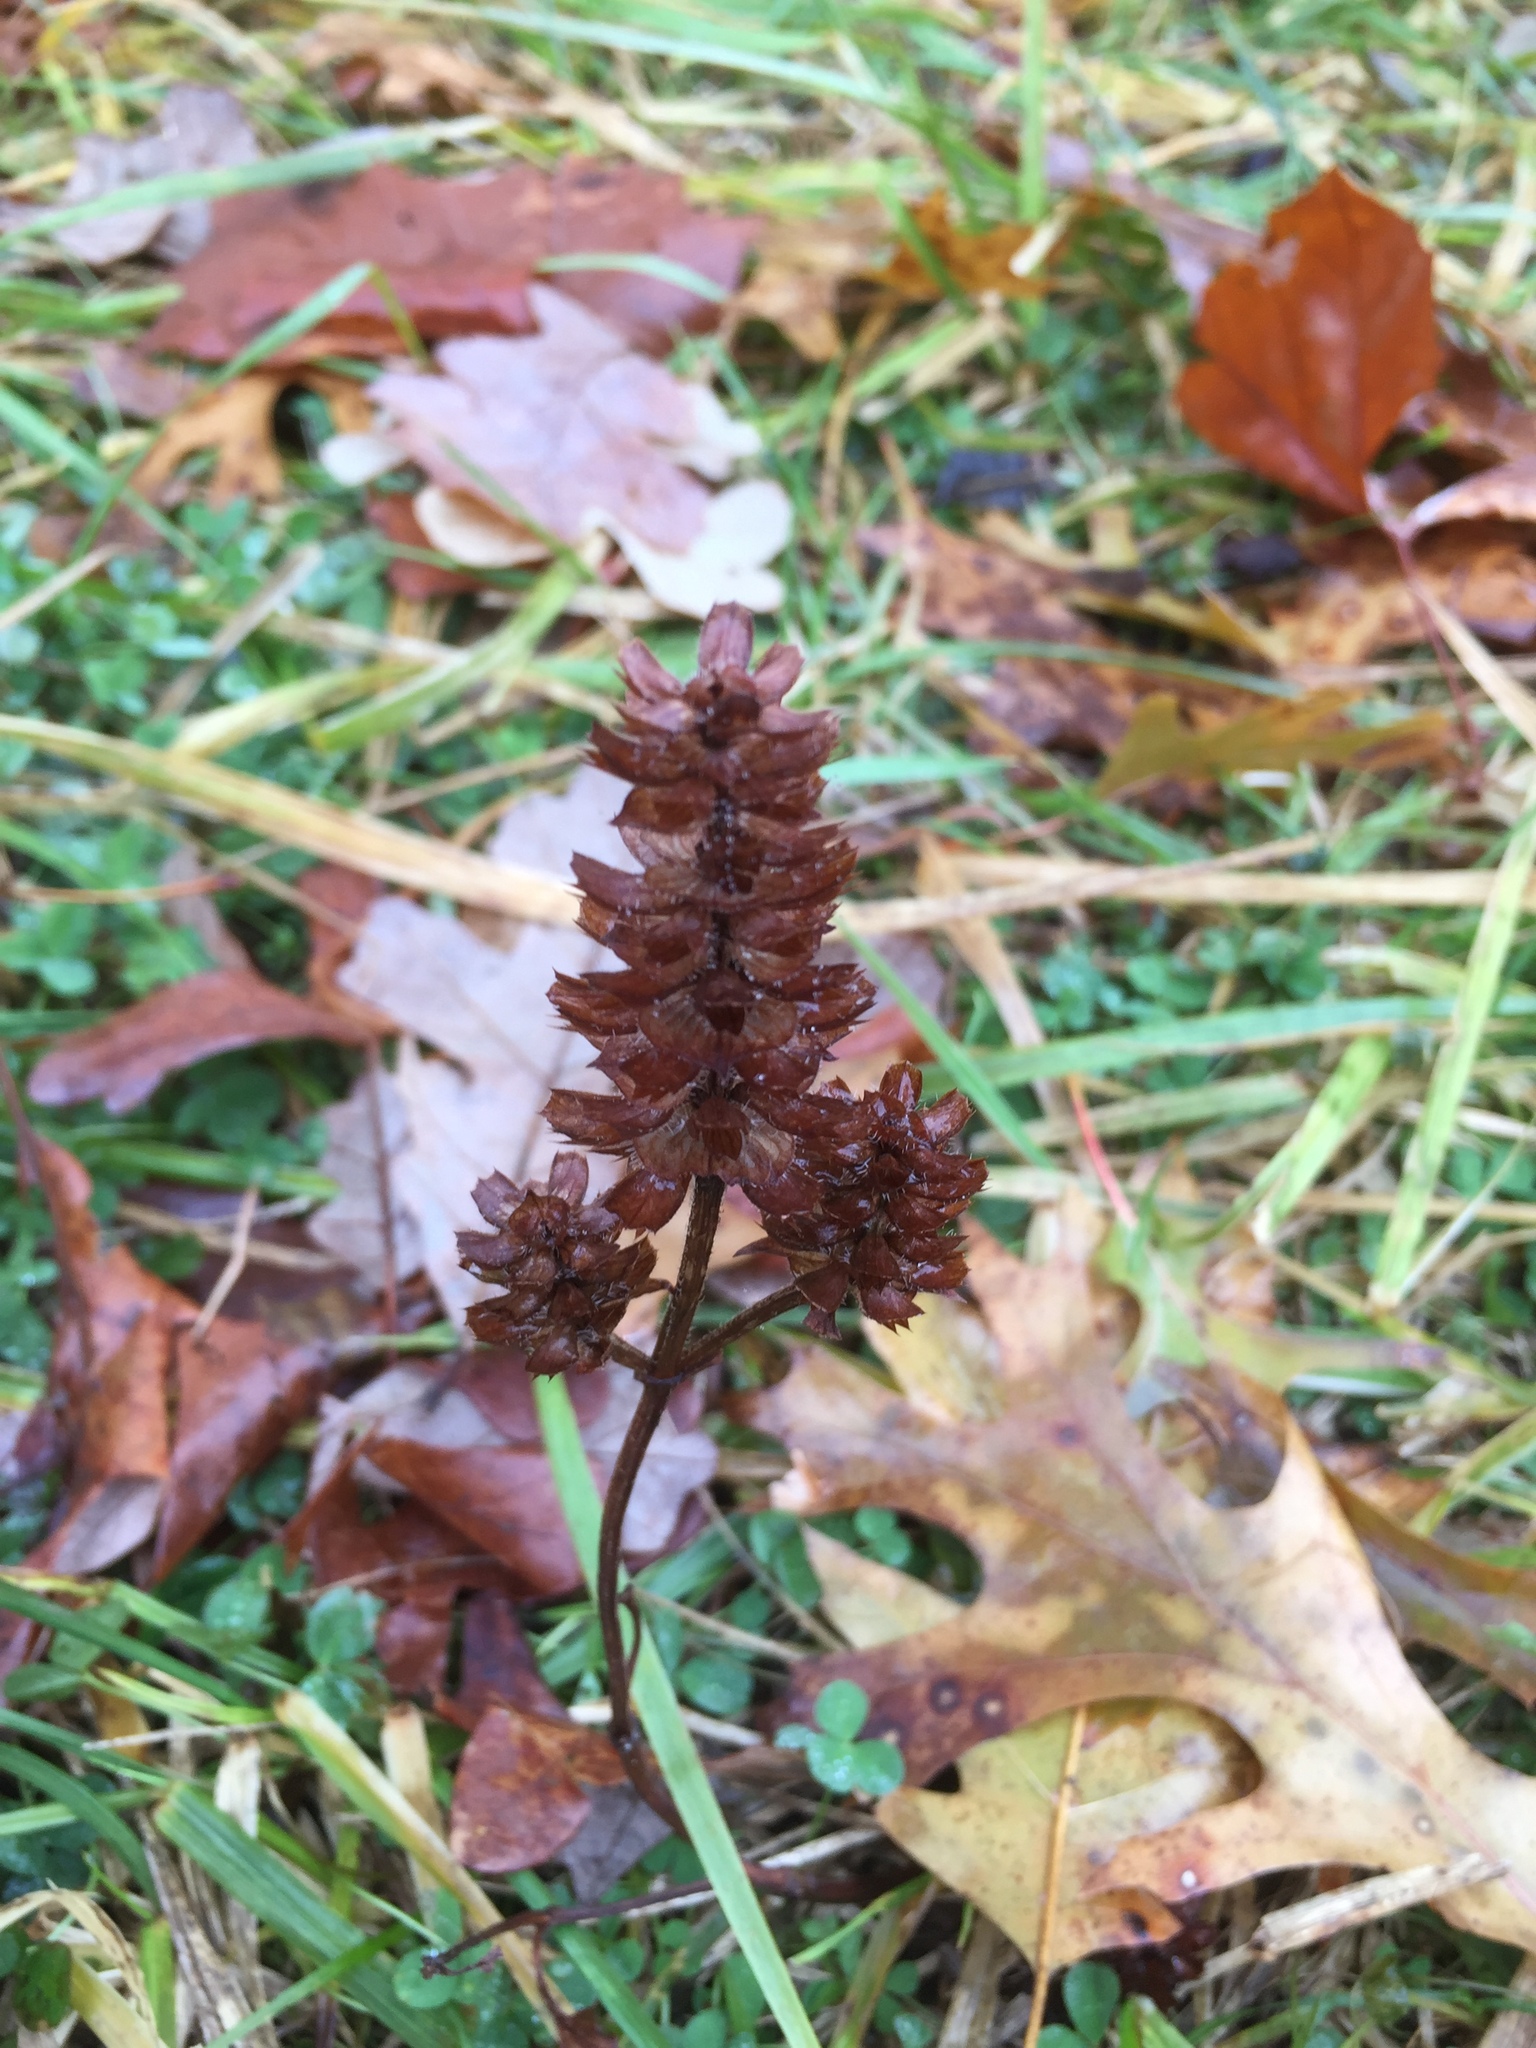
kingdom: Plantae
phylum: Tracheophyta
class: Magnoliopsida
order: Lamiales
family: Lamiaceae
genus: Prunella
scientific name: Prunella vulgaris
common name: Heal-all
